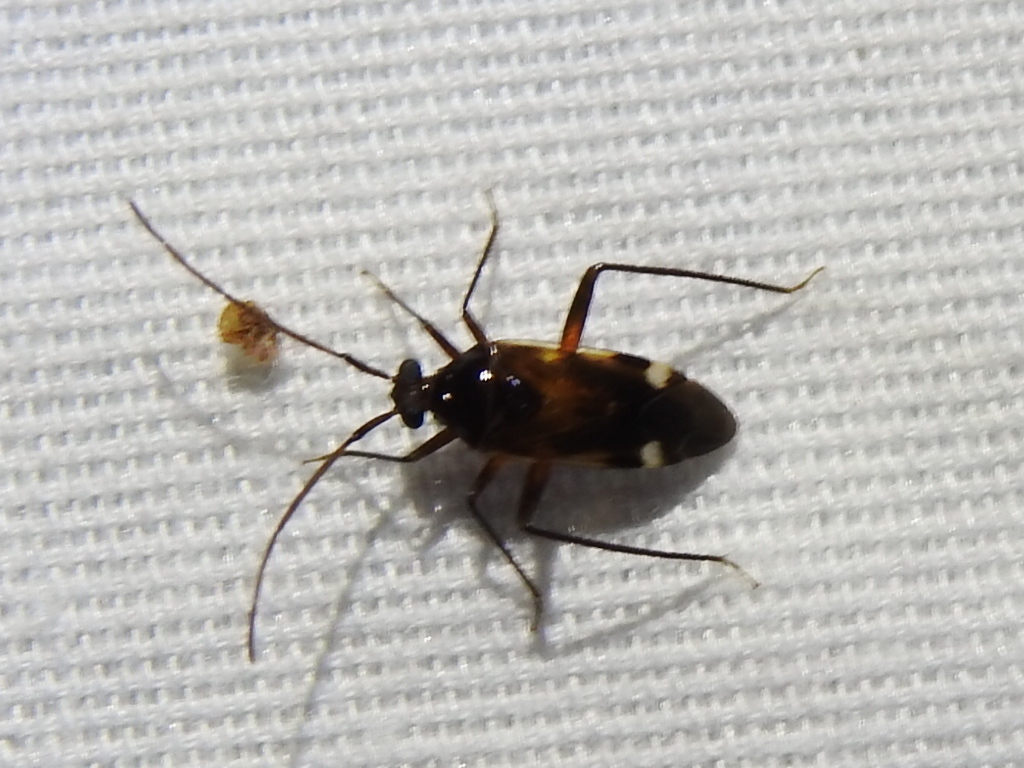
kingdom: Animalia
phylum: Arthropoda
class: Insecta
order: Hemiptera
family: Miridae
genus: Eustictus
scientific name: Eustictus albomaculatus
